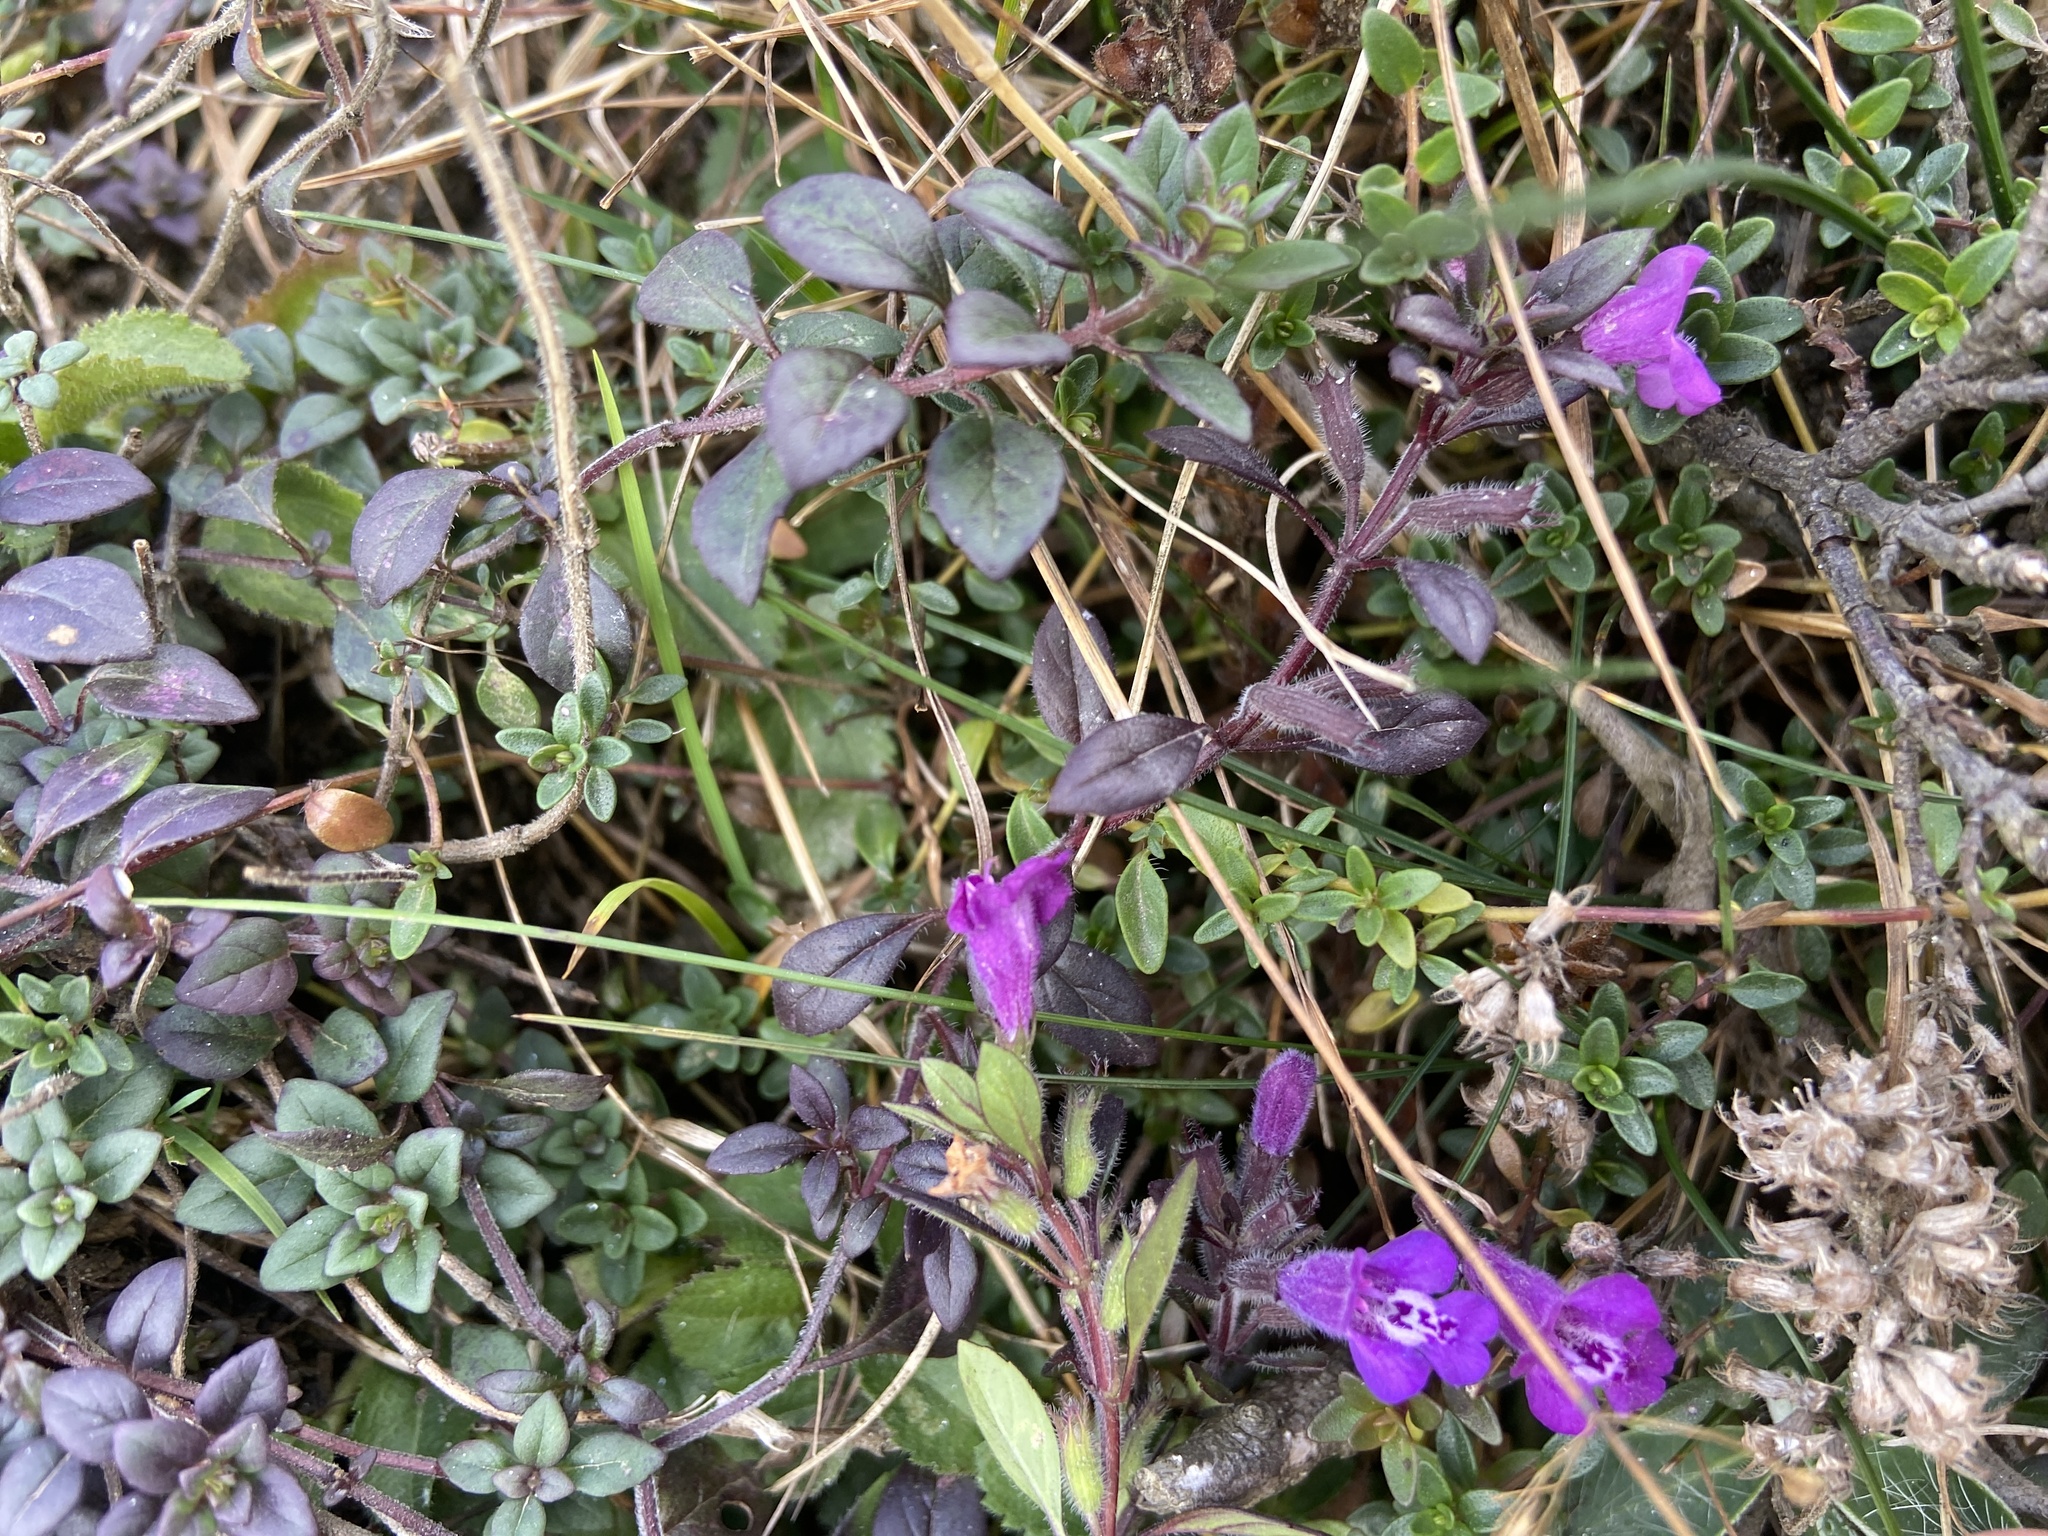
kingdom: Plantae
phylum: Tracheophyta
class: Magnoliopsida
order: Lamiales
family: Lamiaceae
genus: Clinopodium
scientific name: Clinopodium alpinum
